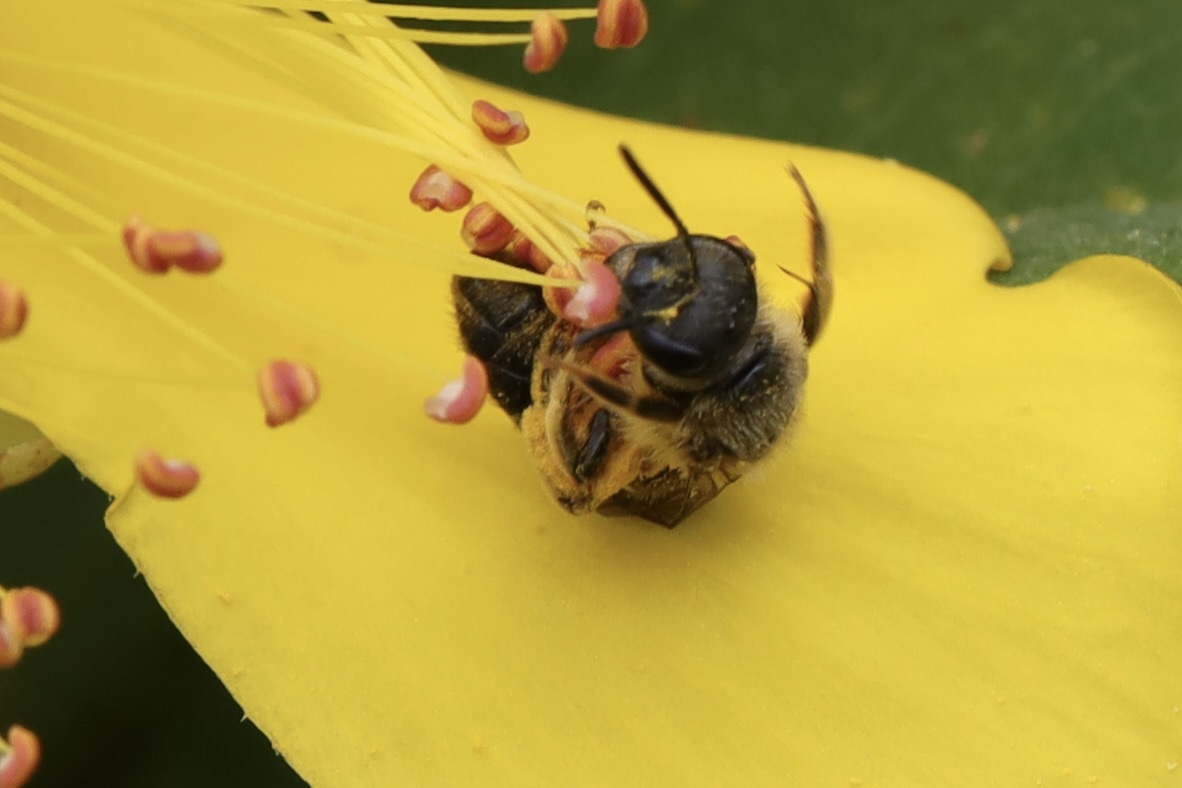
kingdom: Animalia
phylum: Arthropoda
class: Insecta
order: Hymenoptera
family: Halictidae
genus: Halictus
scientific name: Halictus rubicundus
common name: Orange-legged furrow bee
